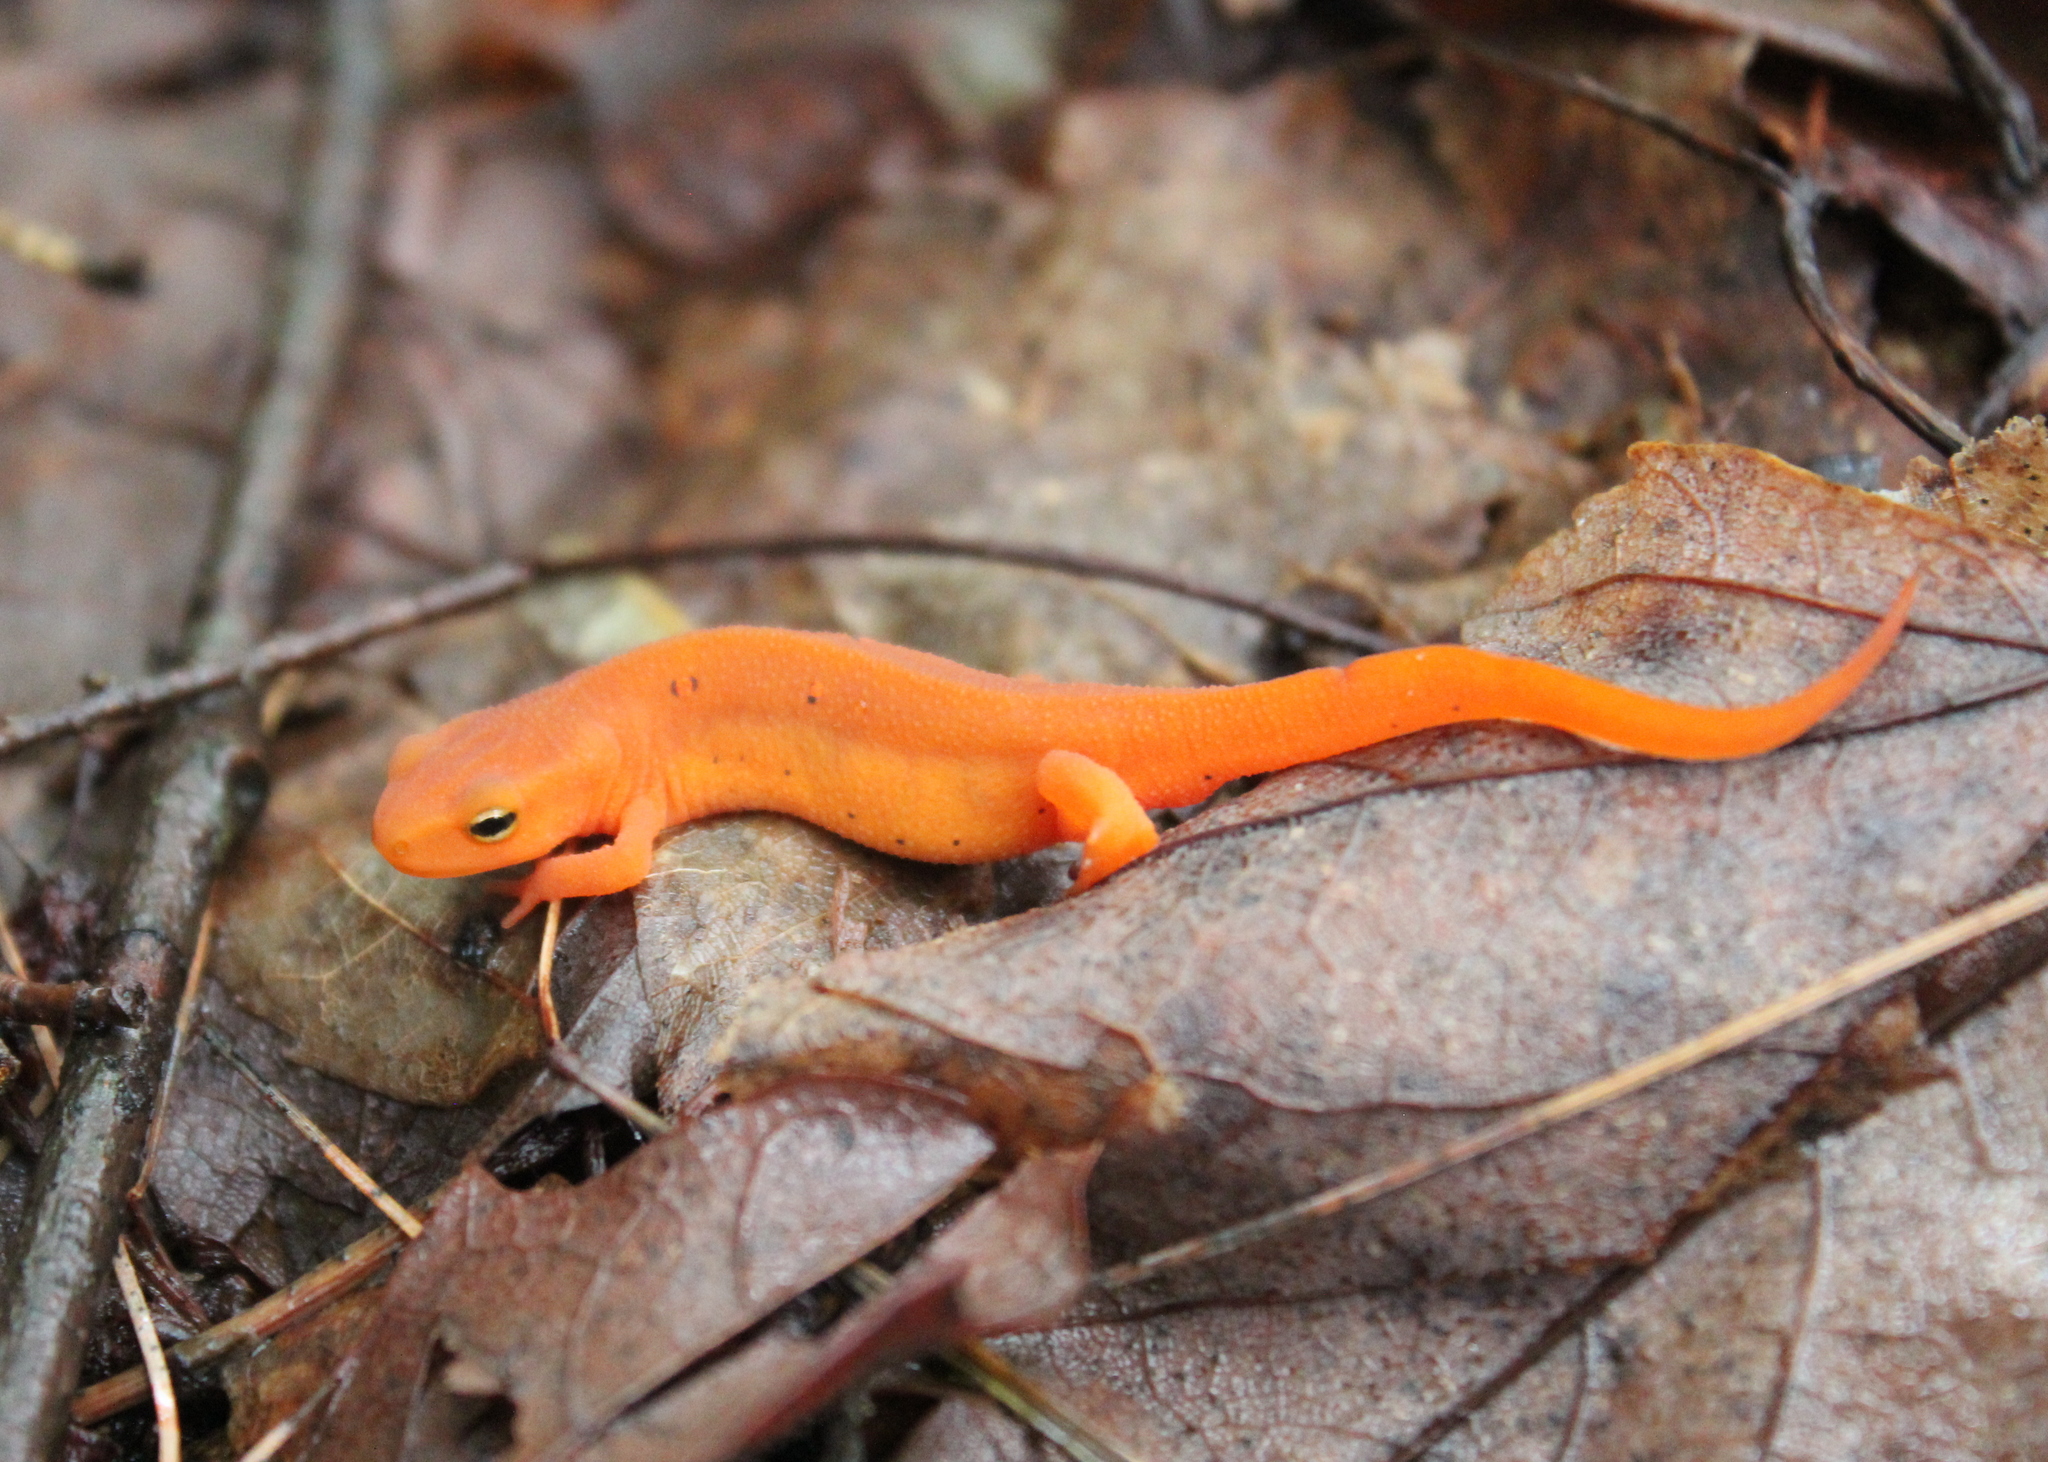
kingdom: Animalia
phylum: Chordata
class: Amphibia
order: Caudata
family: Salamandridae
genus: Notophthalmus
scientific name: Notophthalmus viridescens
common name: Eastern newt
